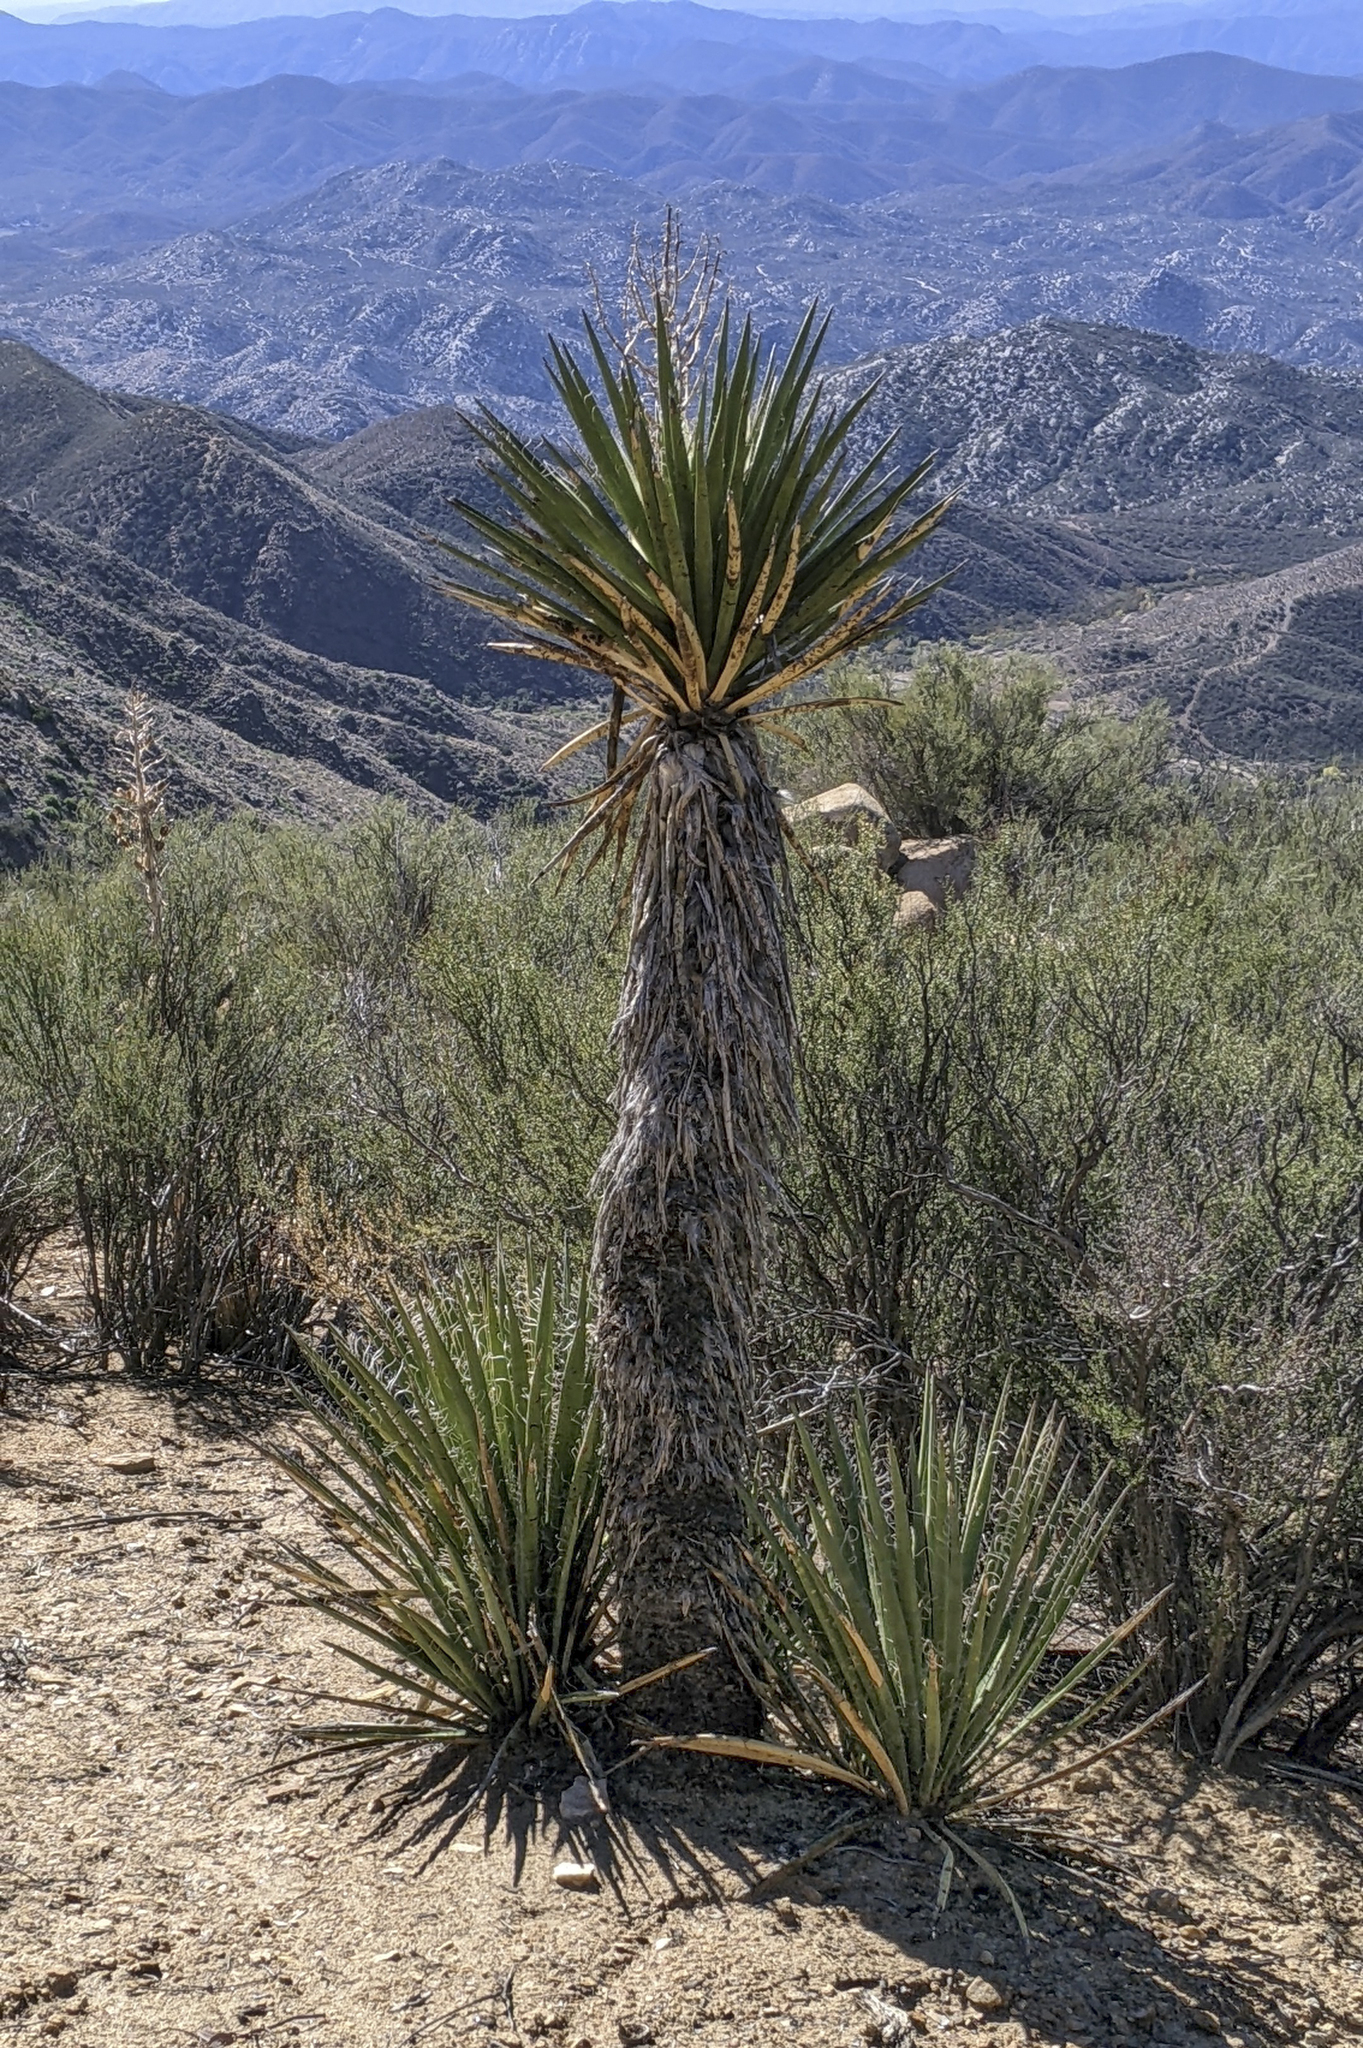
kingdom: Plantae
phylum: Tracheophyta
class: Liliopsida
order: Asparagales
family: Asparagaceae
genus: Yucca
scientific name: Yucca schidigera
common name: Mojave yucca
